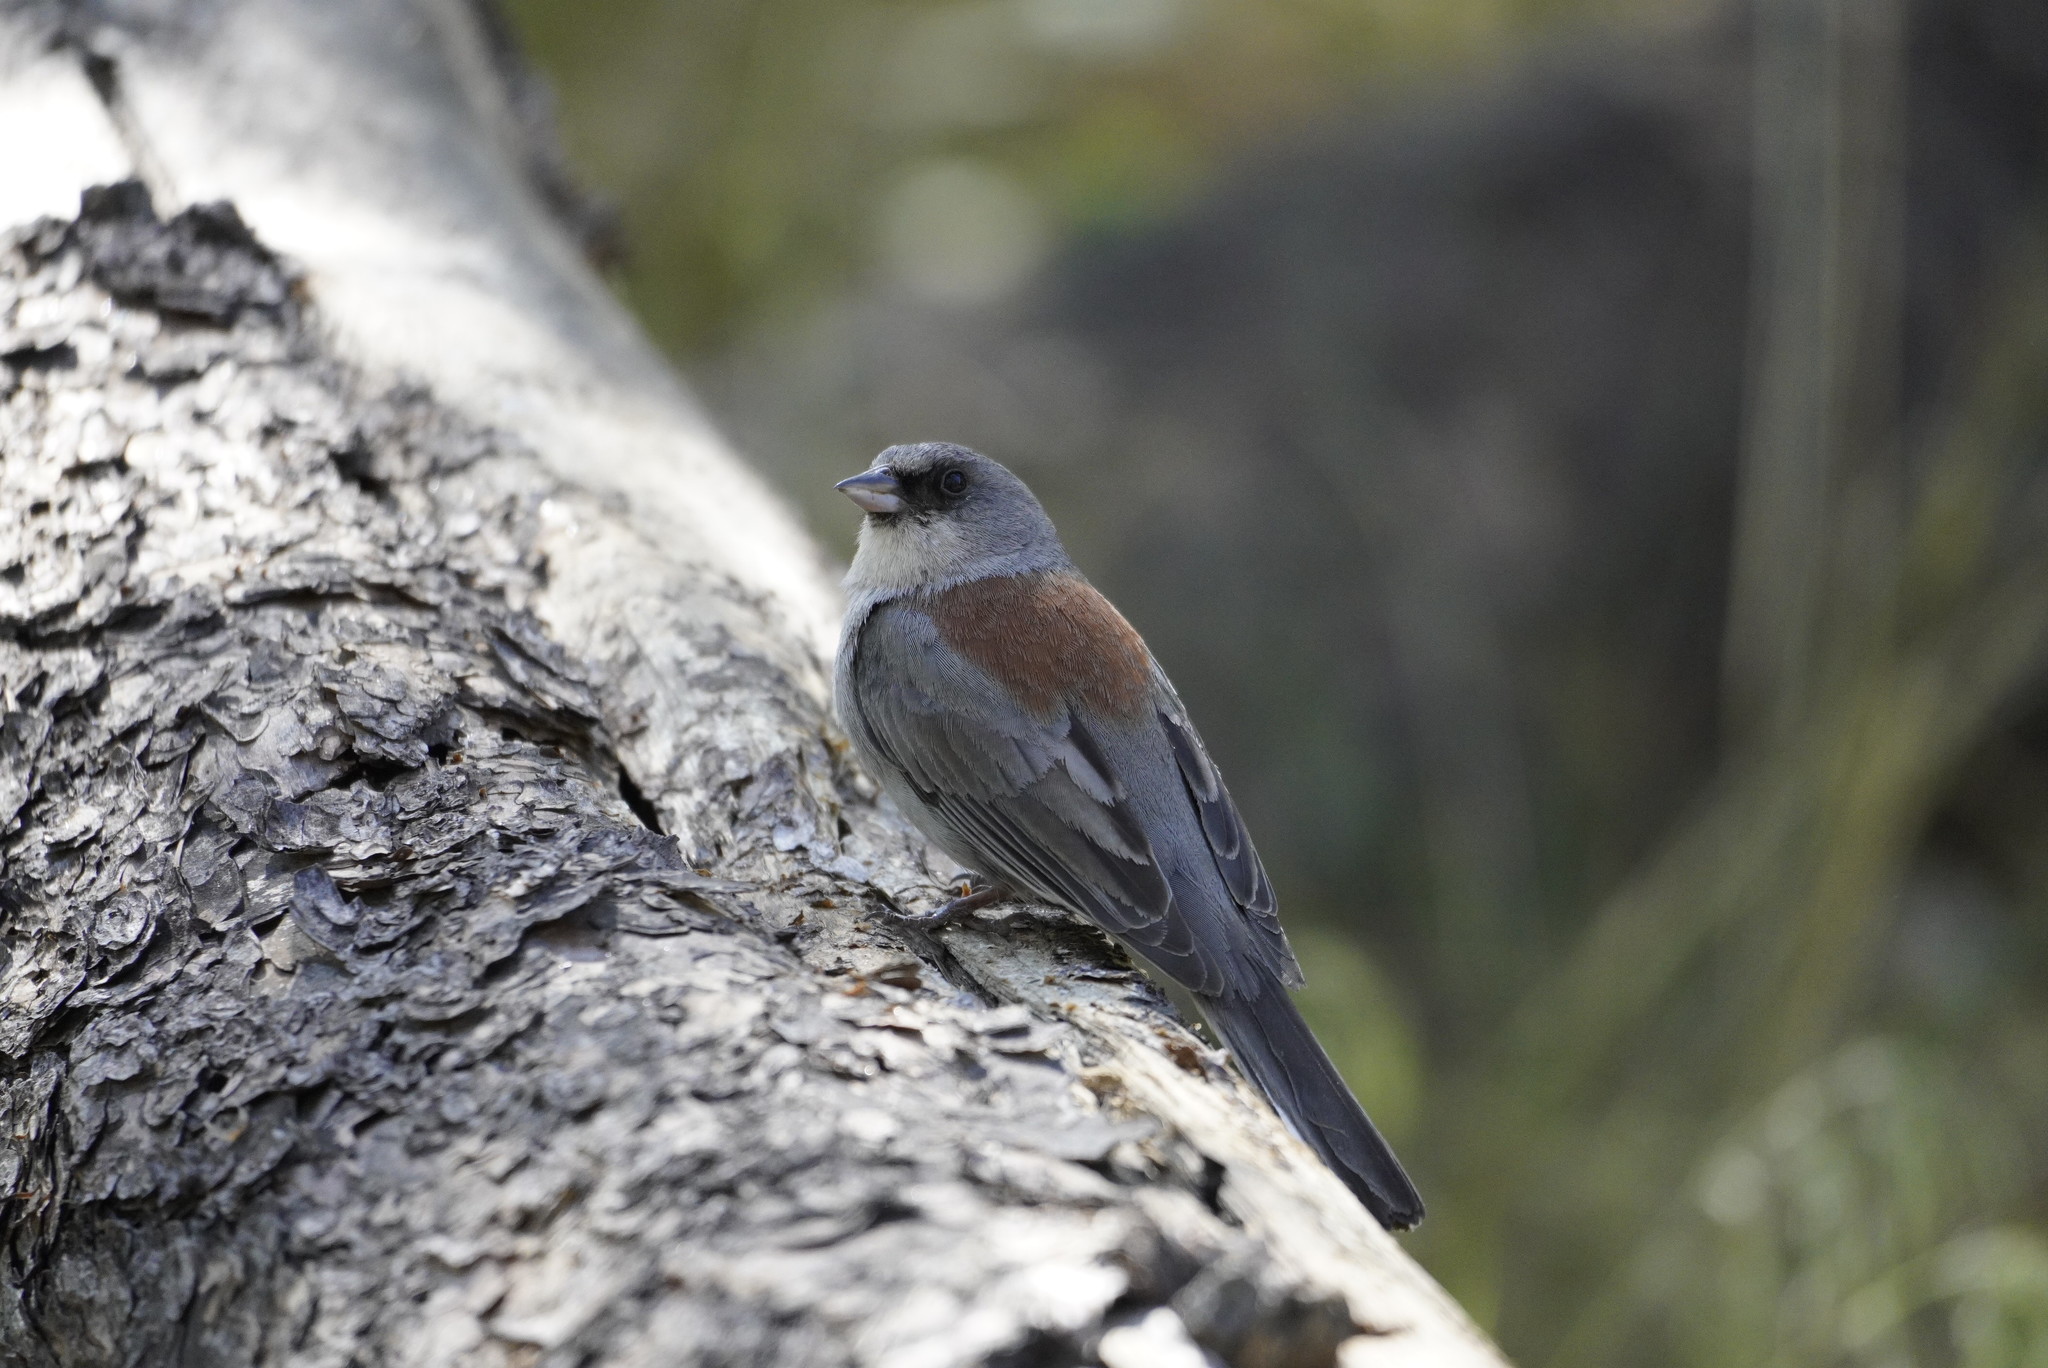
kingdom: Animalia
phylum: Chordata
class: Aves
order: Passeriformes
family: Passerellidae
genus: Junco
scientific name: Junco hyemalis
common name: Dark-eyed junco
